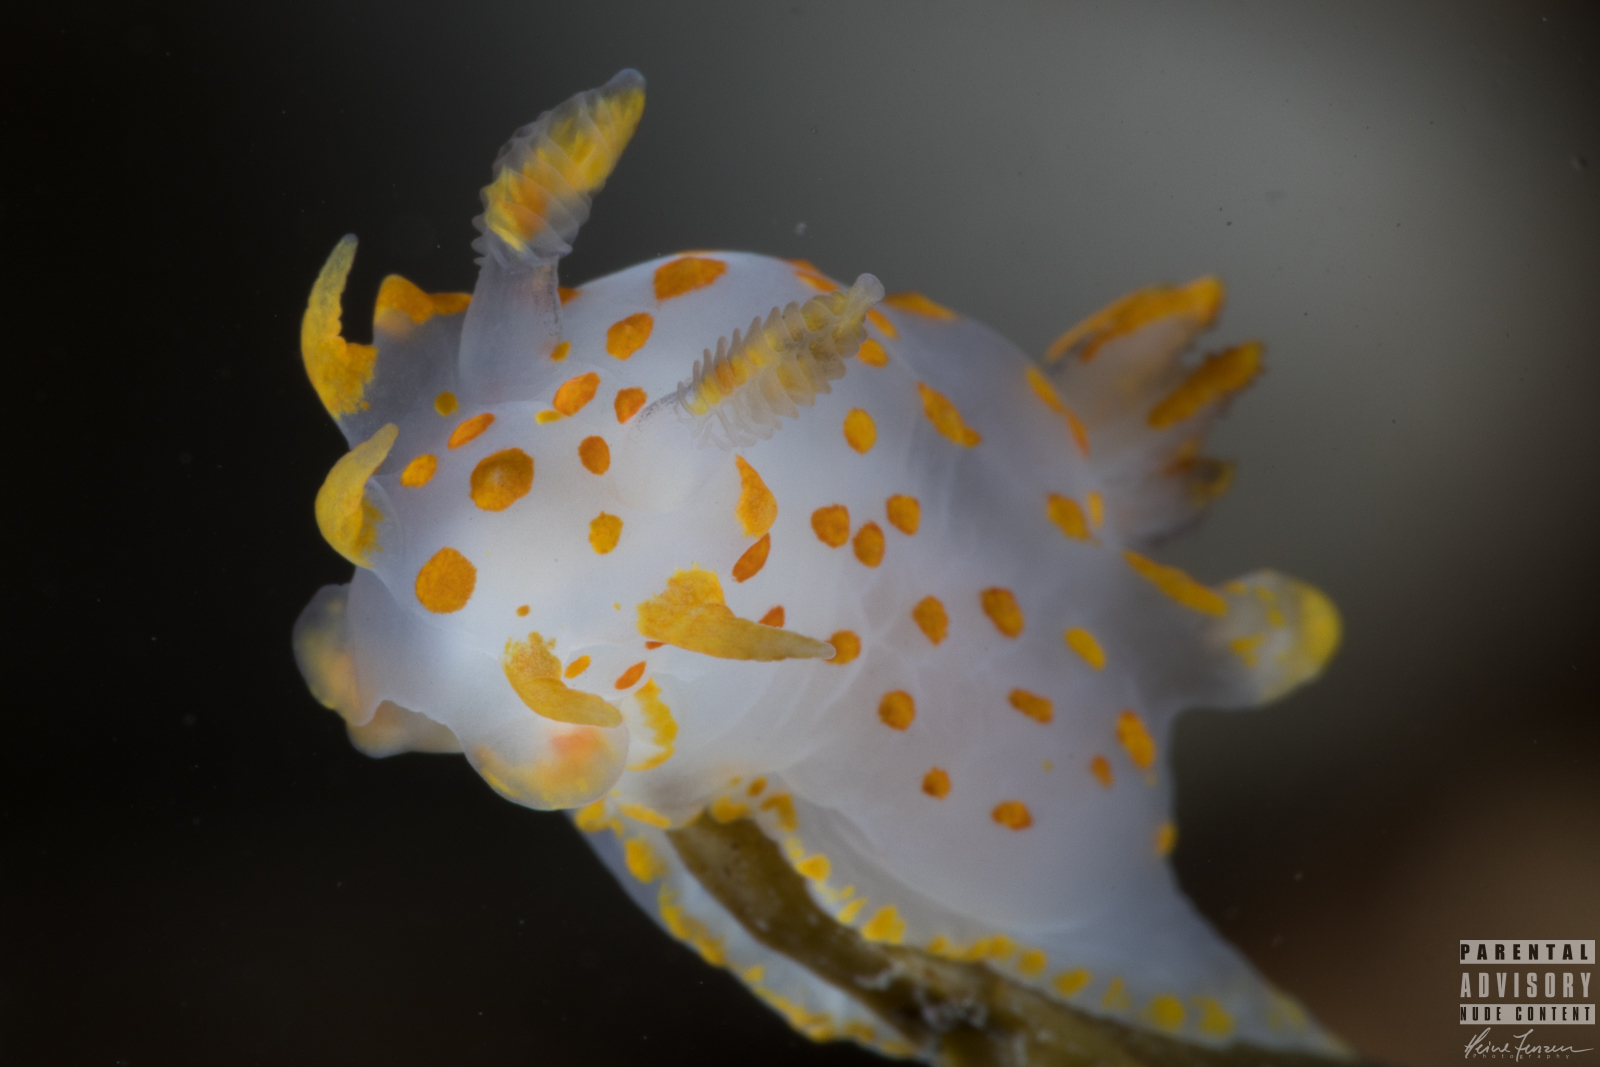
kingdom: Animalia
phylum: Mollusca
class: Gastropoda
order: Nudibranchia
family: Polyceridae
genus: Polycera
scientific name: Polycera quadrilineata
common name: Four-striped polycera
